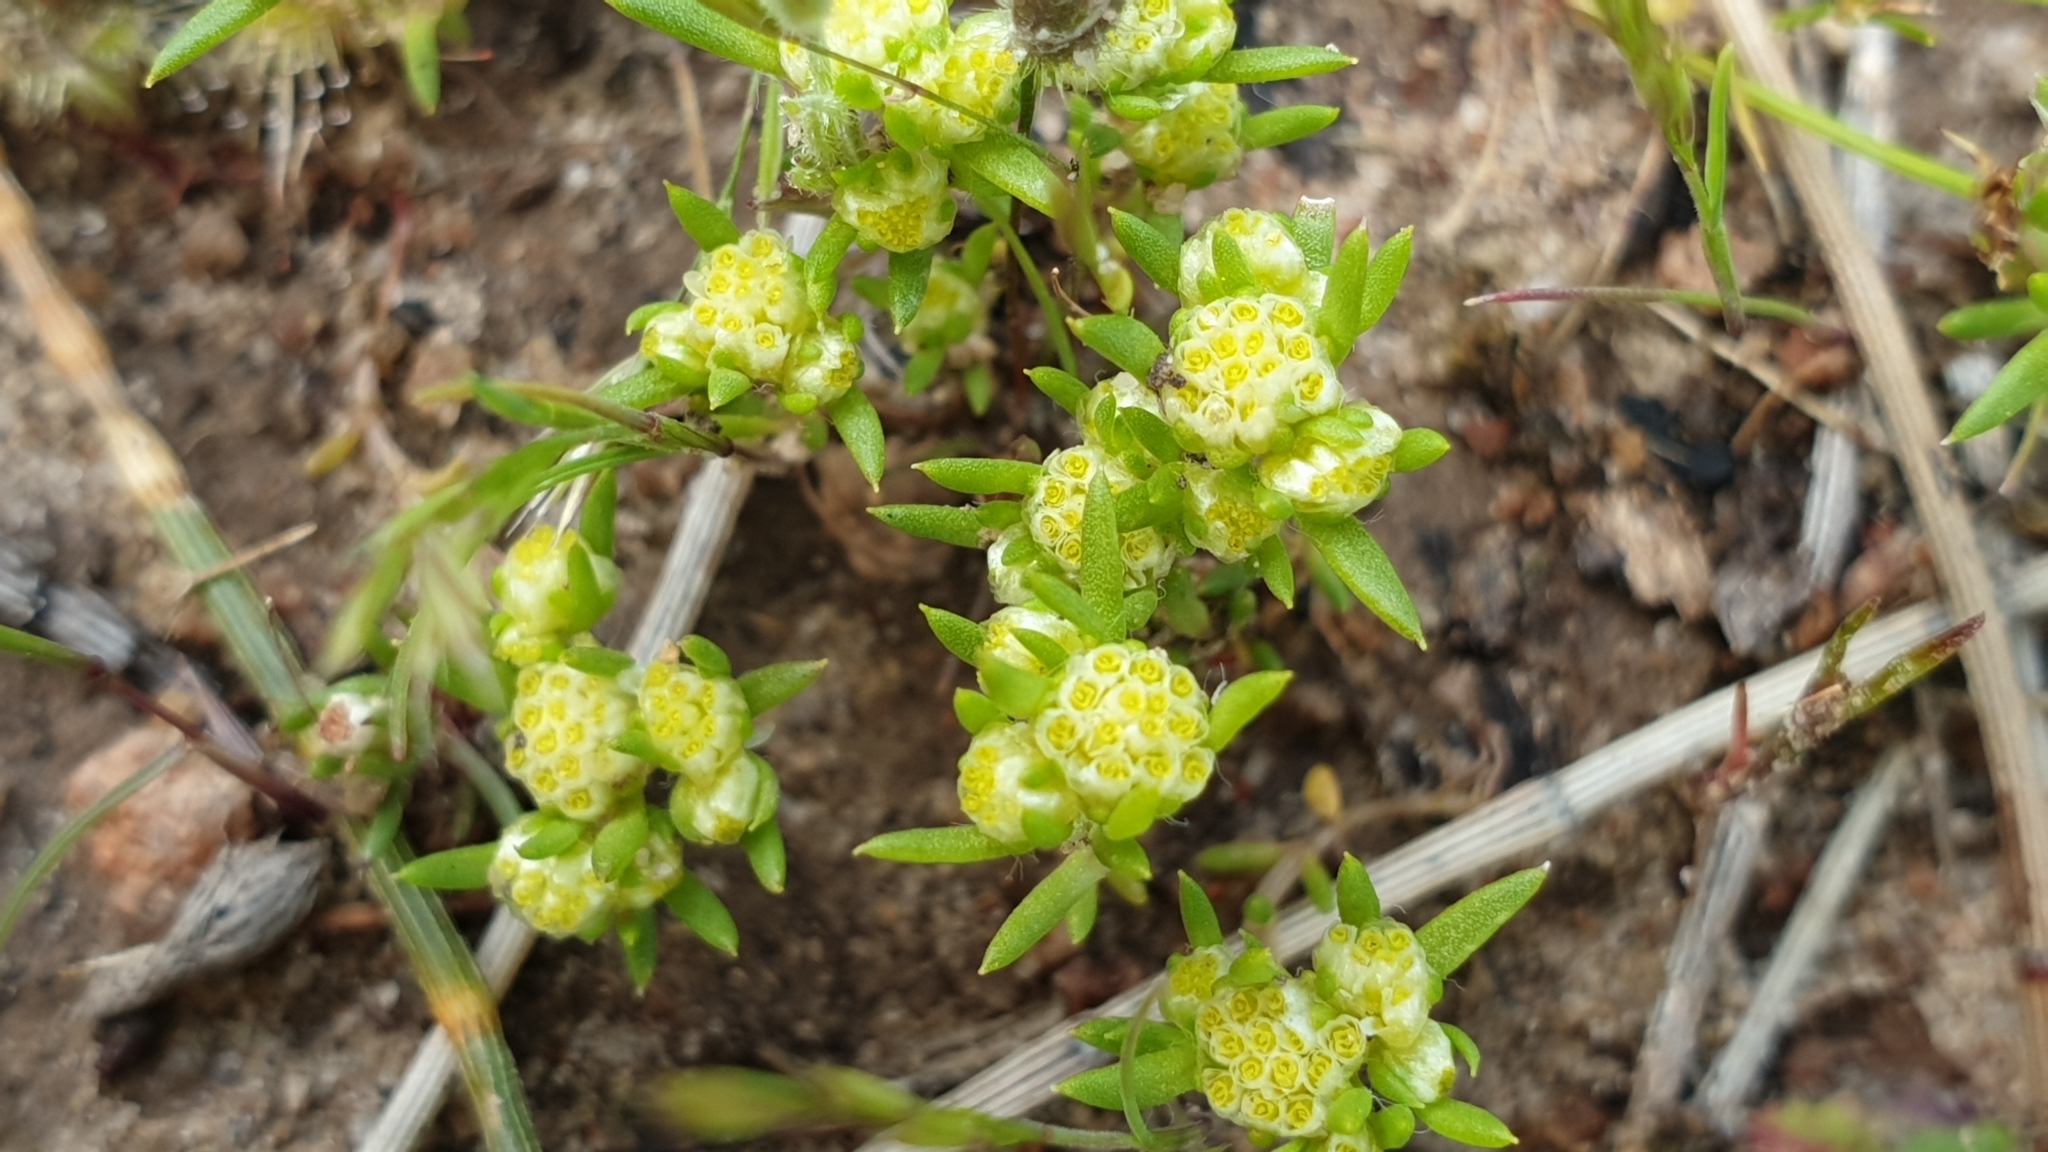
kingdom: Plantae
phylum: Tracheophyta
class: Magnoliopsida
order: Asterales
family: Asteraceae
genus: Siloxerus
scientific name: Siloxerus multiflorus
